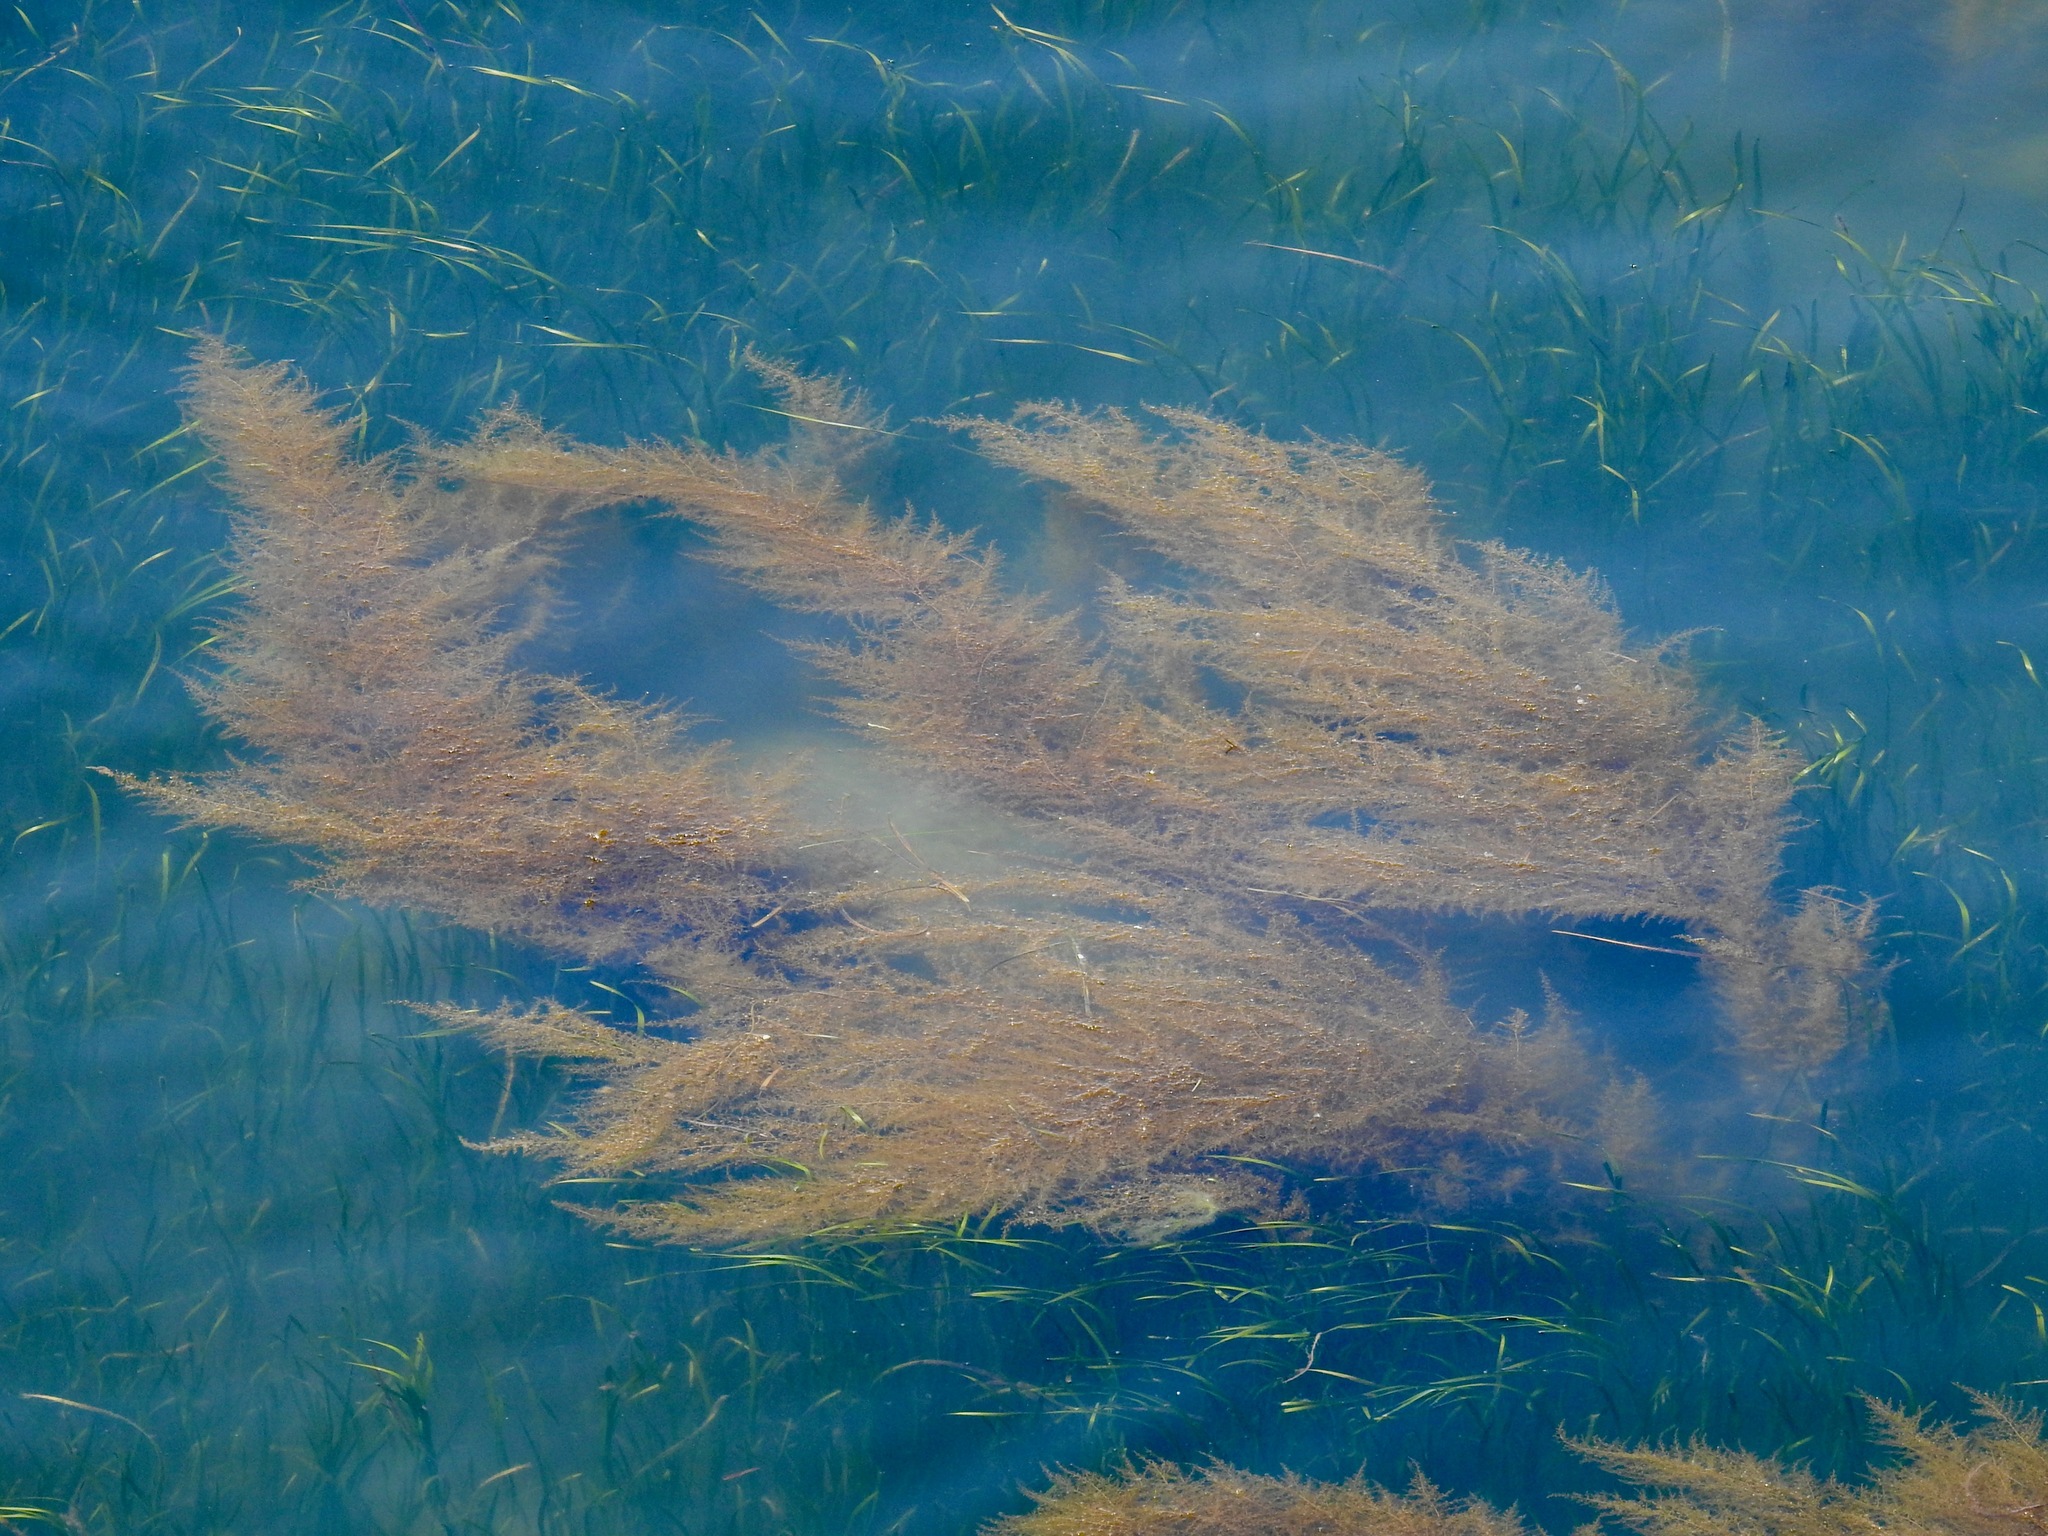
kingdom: Chromista
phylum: Ochrophyta
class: Phaeophyceae
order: Fucales
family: Sargassaceae
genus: Sargassum
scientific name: Sargassum muticum
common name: Japweed
